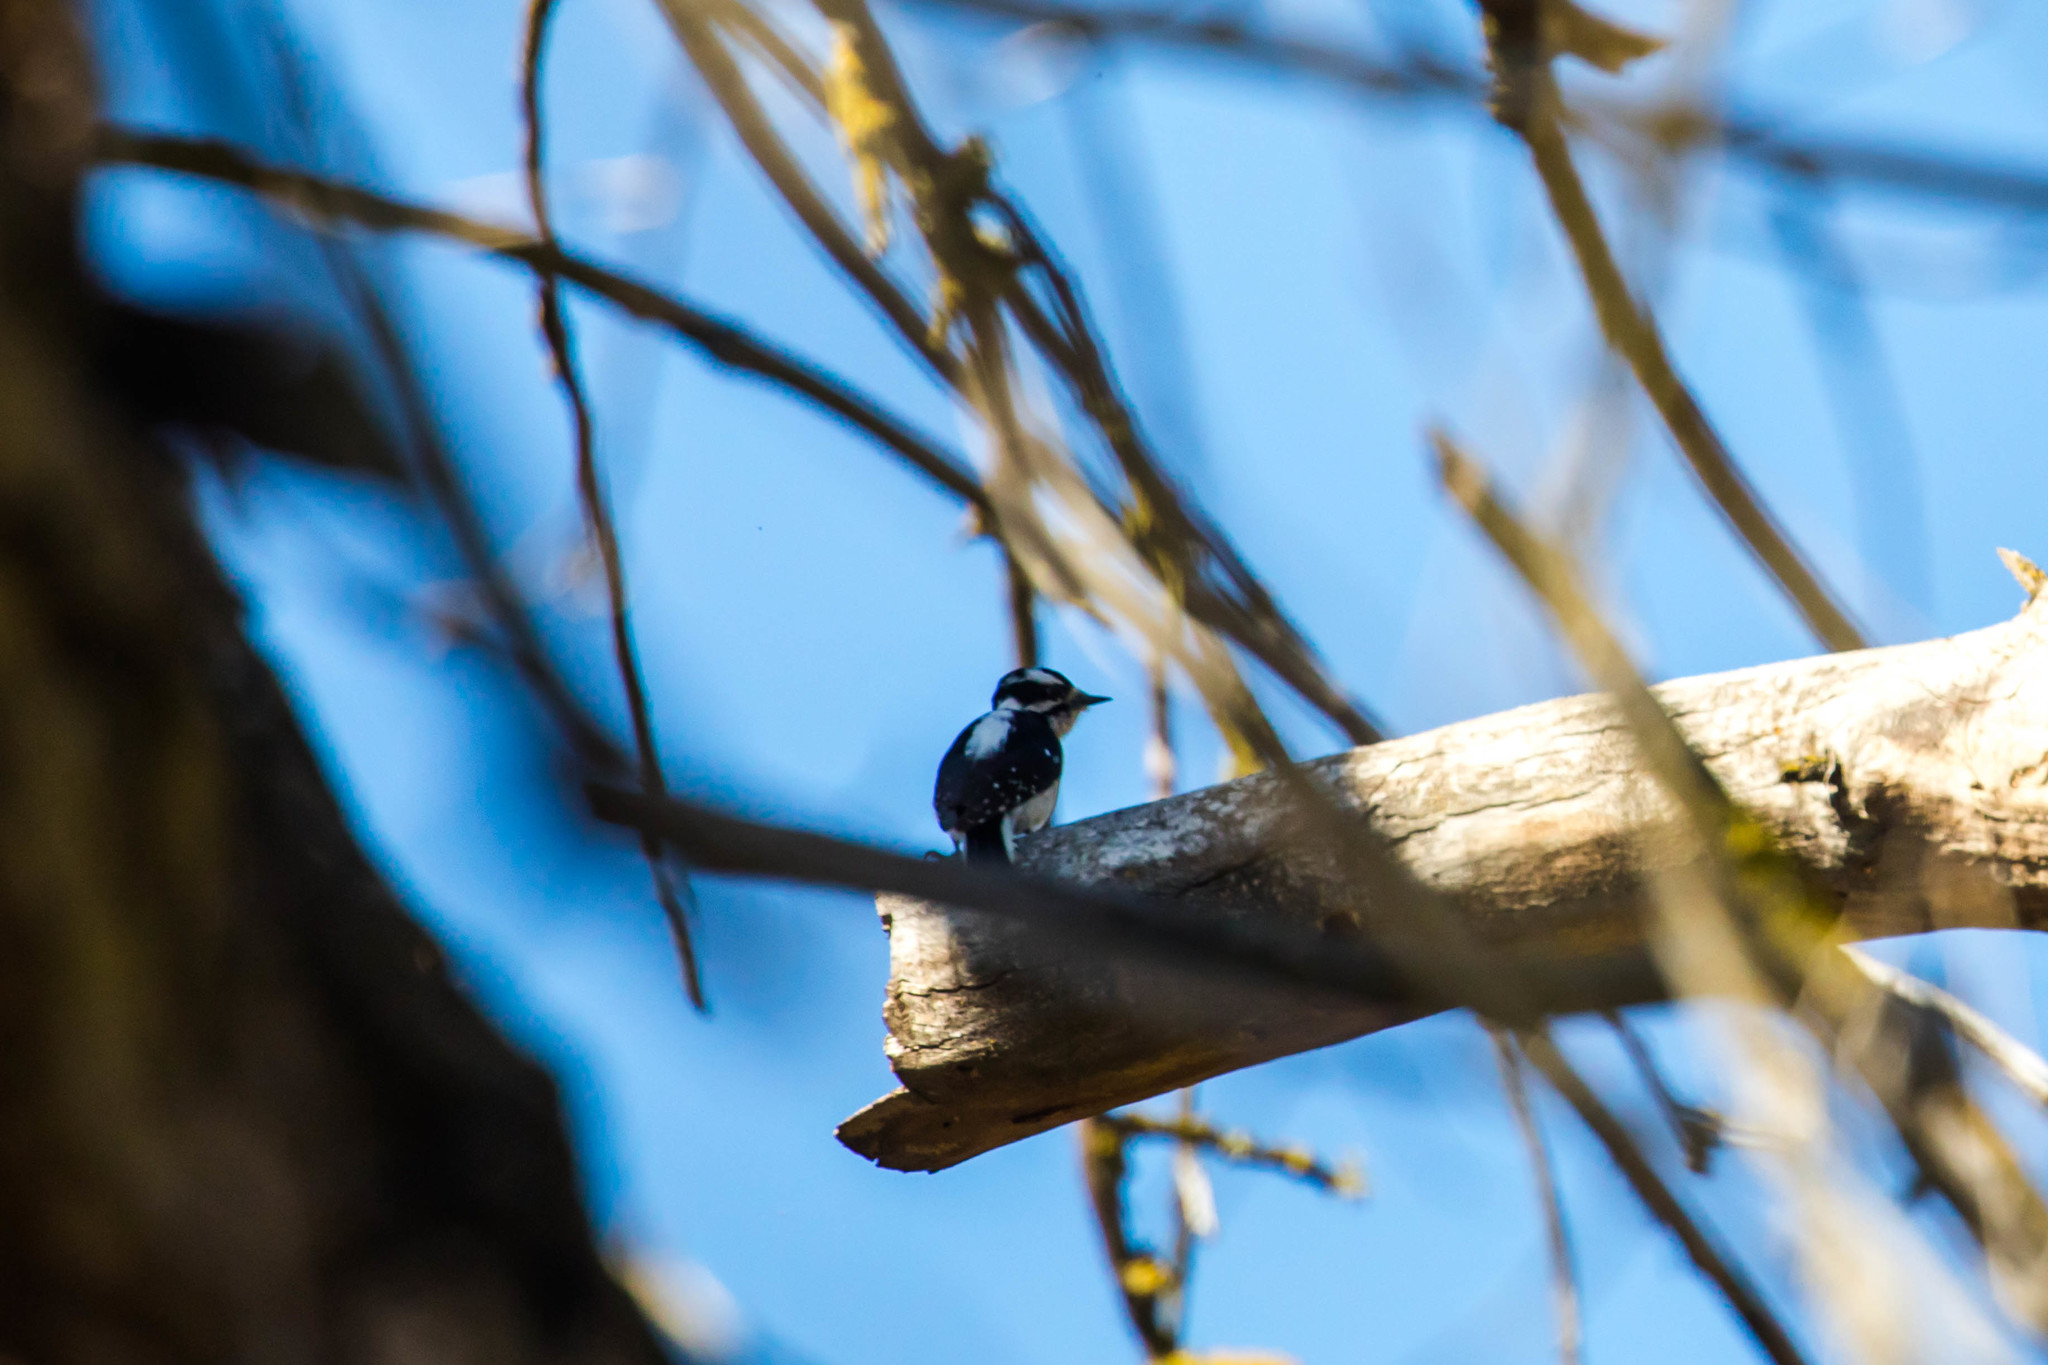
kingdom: Animalia
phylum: Chordata
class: Aves
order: Piciformes
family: Picidae
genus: Dryobates
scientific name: Dryobates pubescens
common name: Downy woodpecker
